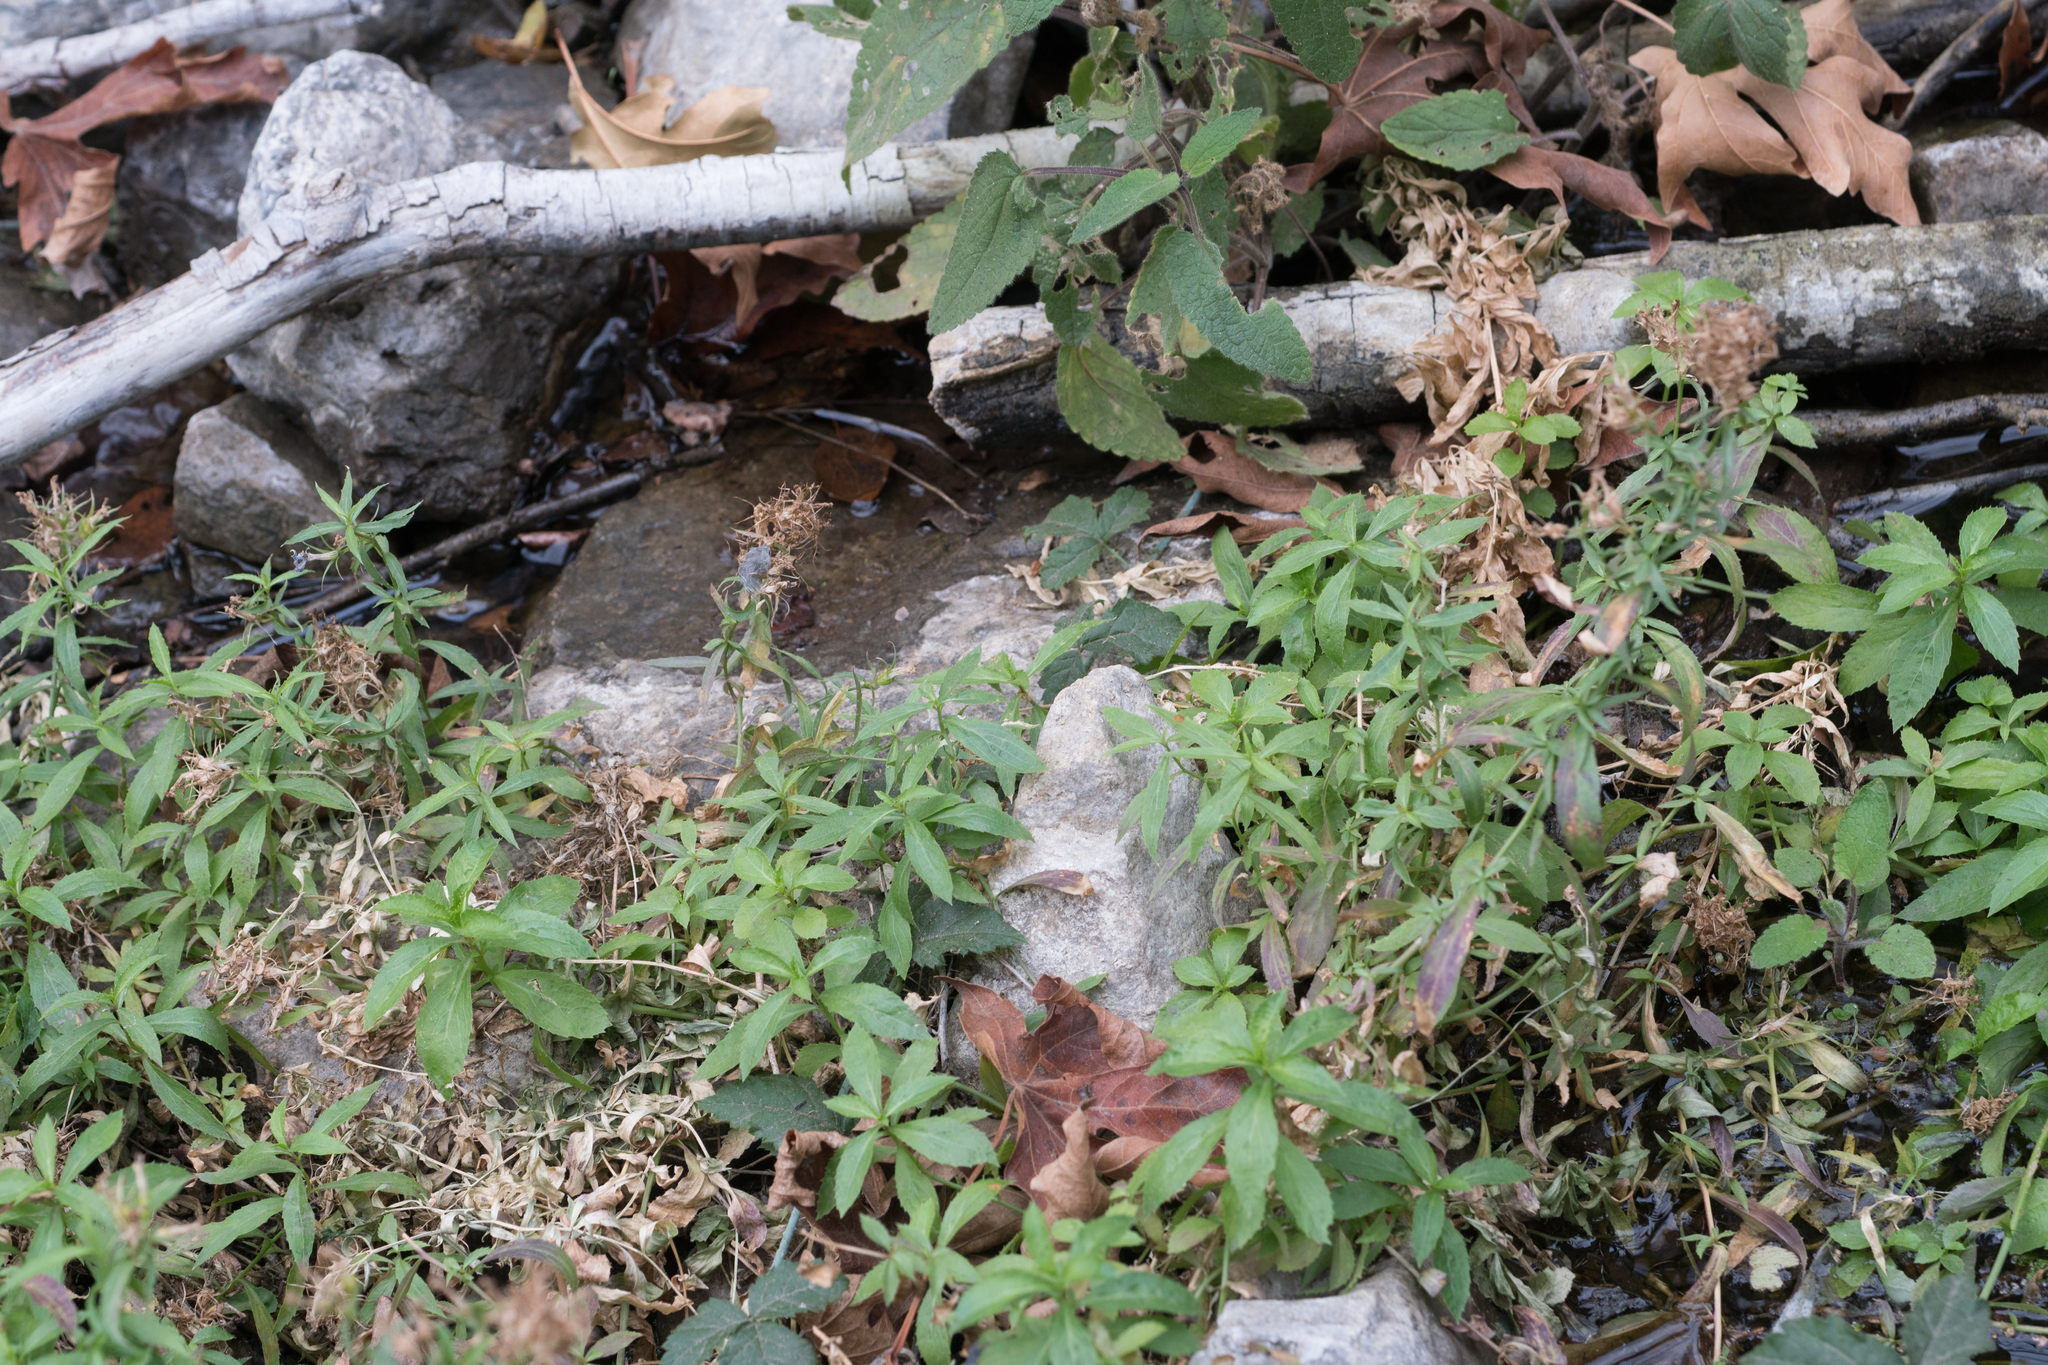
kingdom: Plantae
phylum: Tracheophyta
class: Magnoliopsida
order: Asterales
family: Campanulaceae
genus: Palmerella
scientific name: Palmerella debilis
